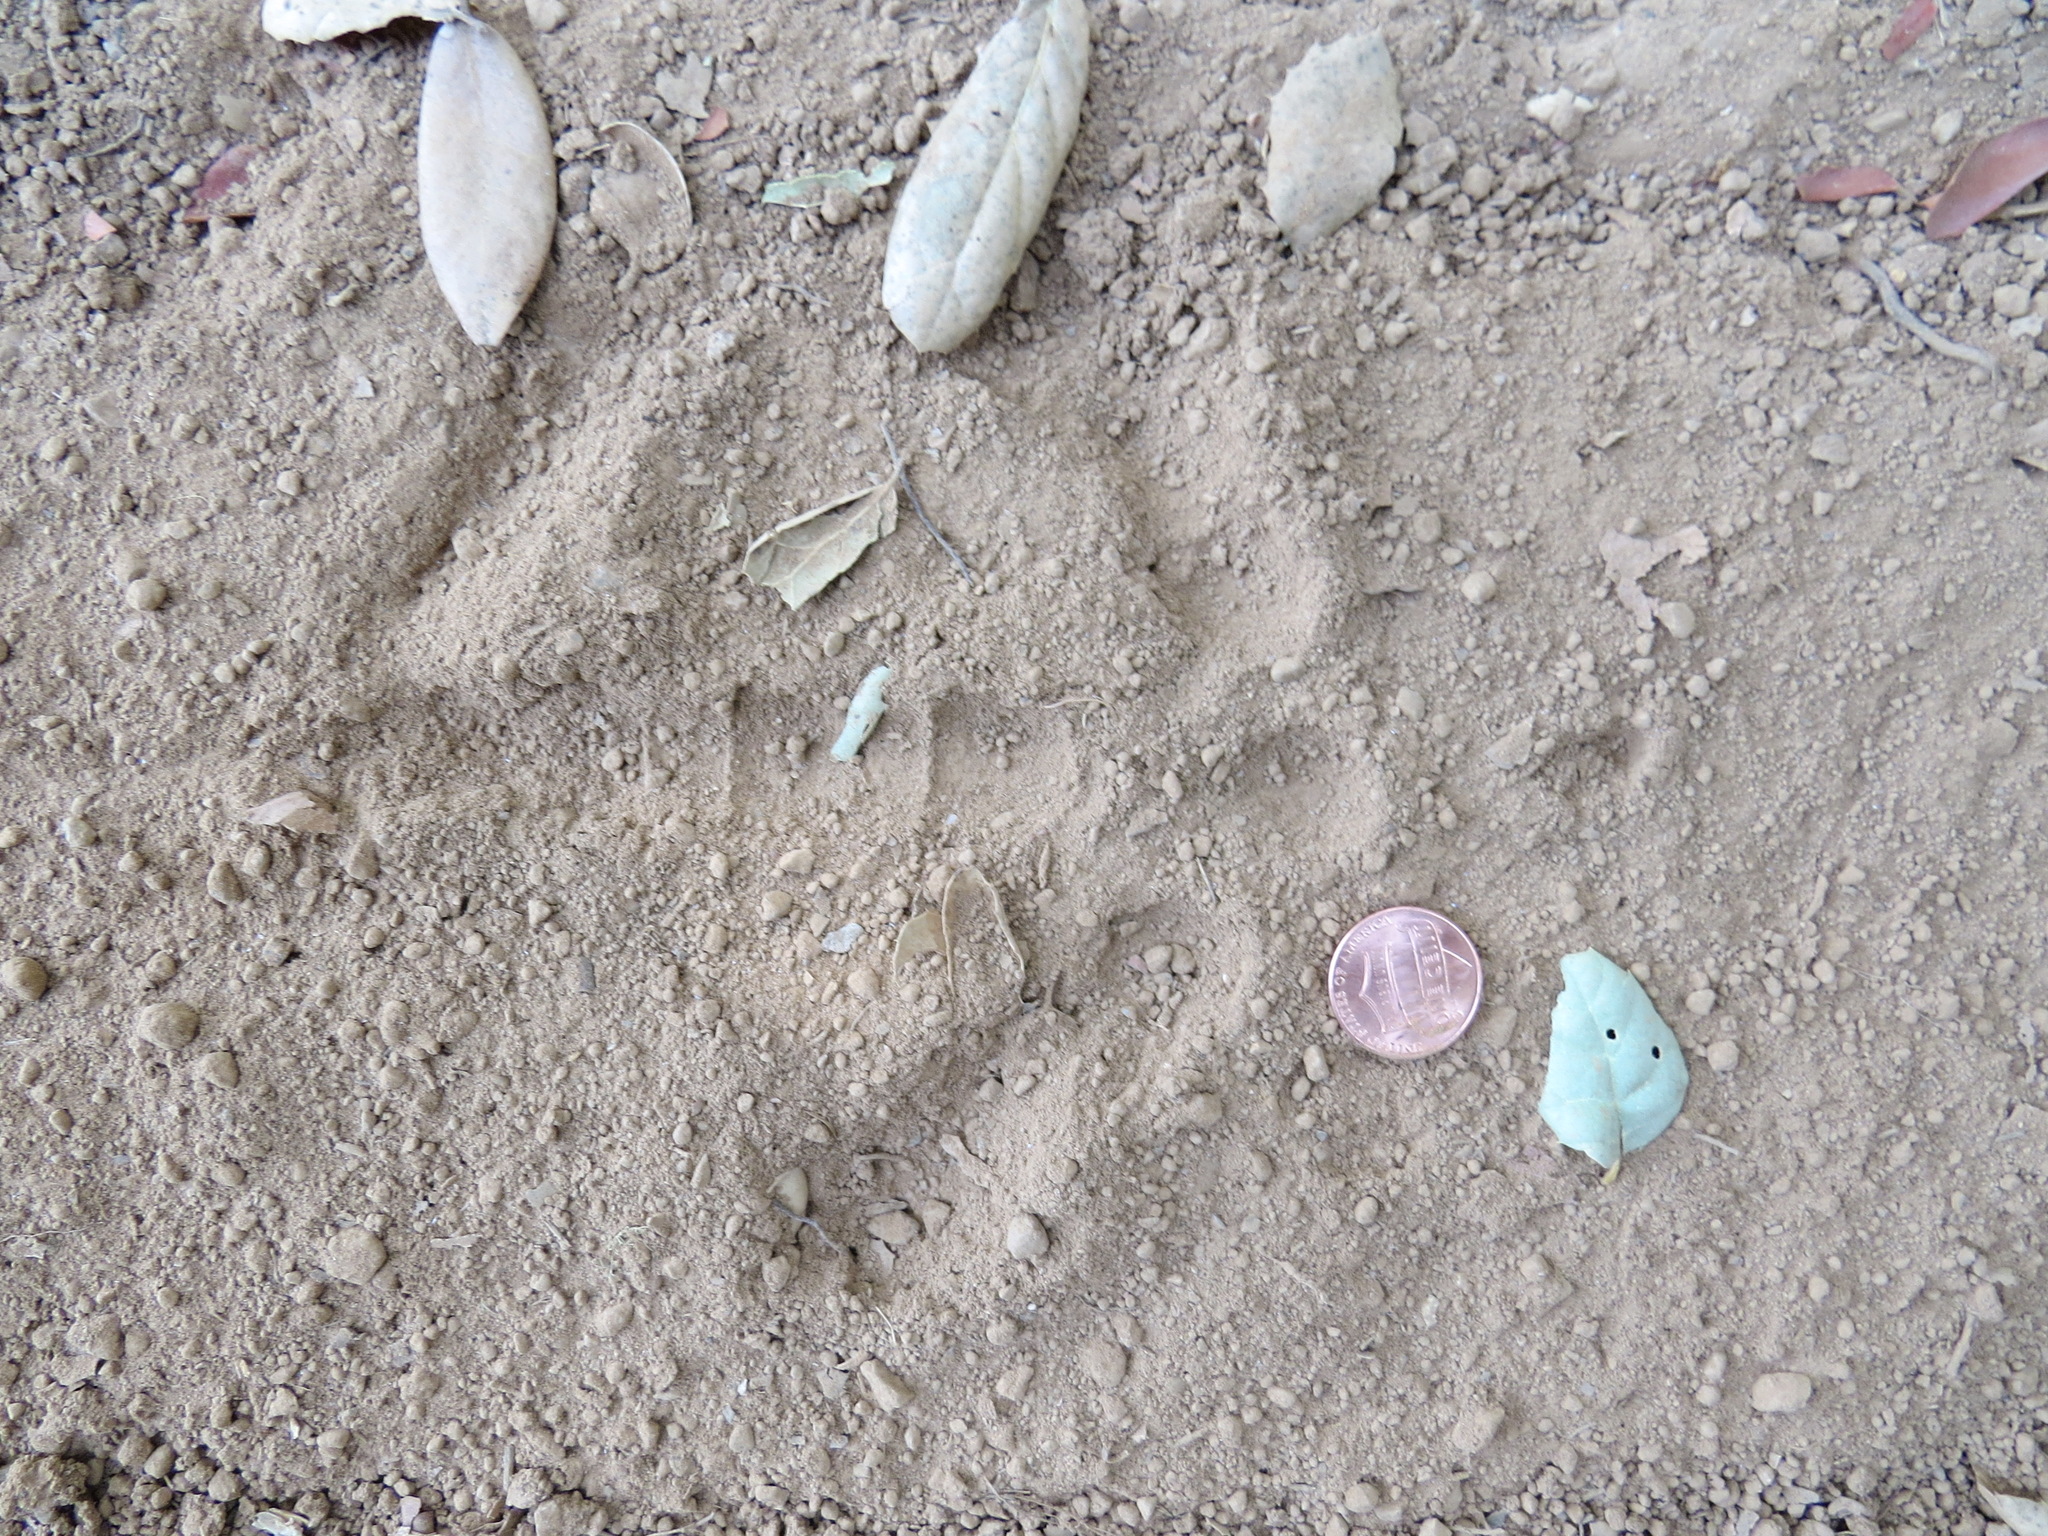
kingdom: Animalia
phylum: Chordata
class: Aves
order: Galliformes
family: Phasianidae
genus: Meleagris
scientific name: Meleagris gallopavo
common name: Wild turkey
